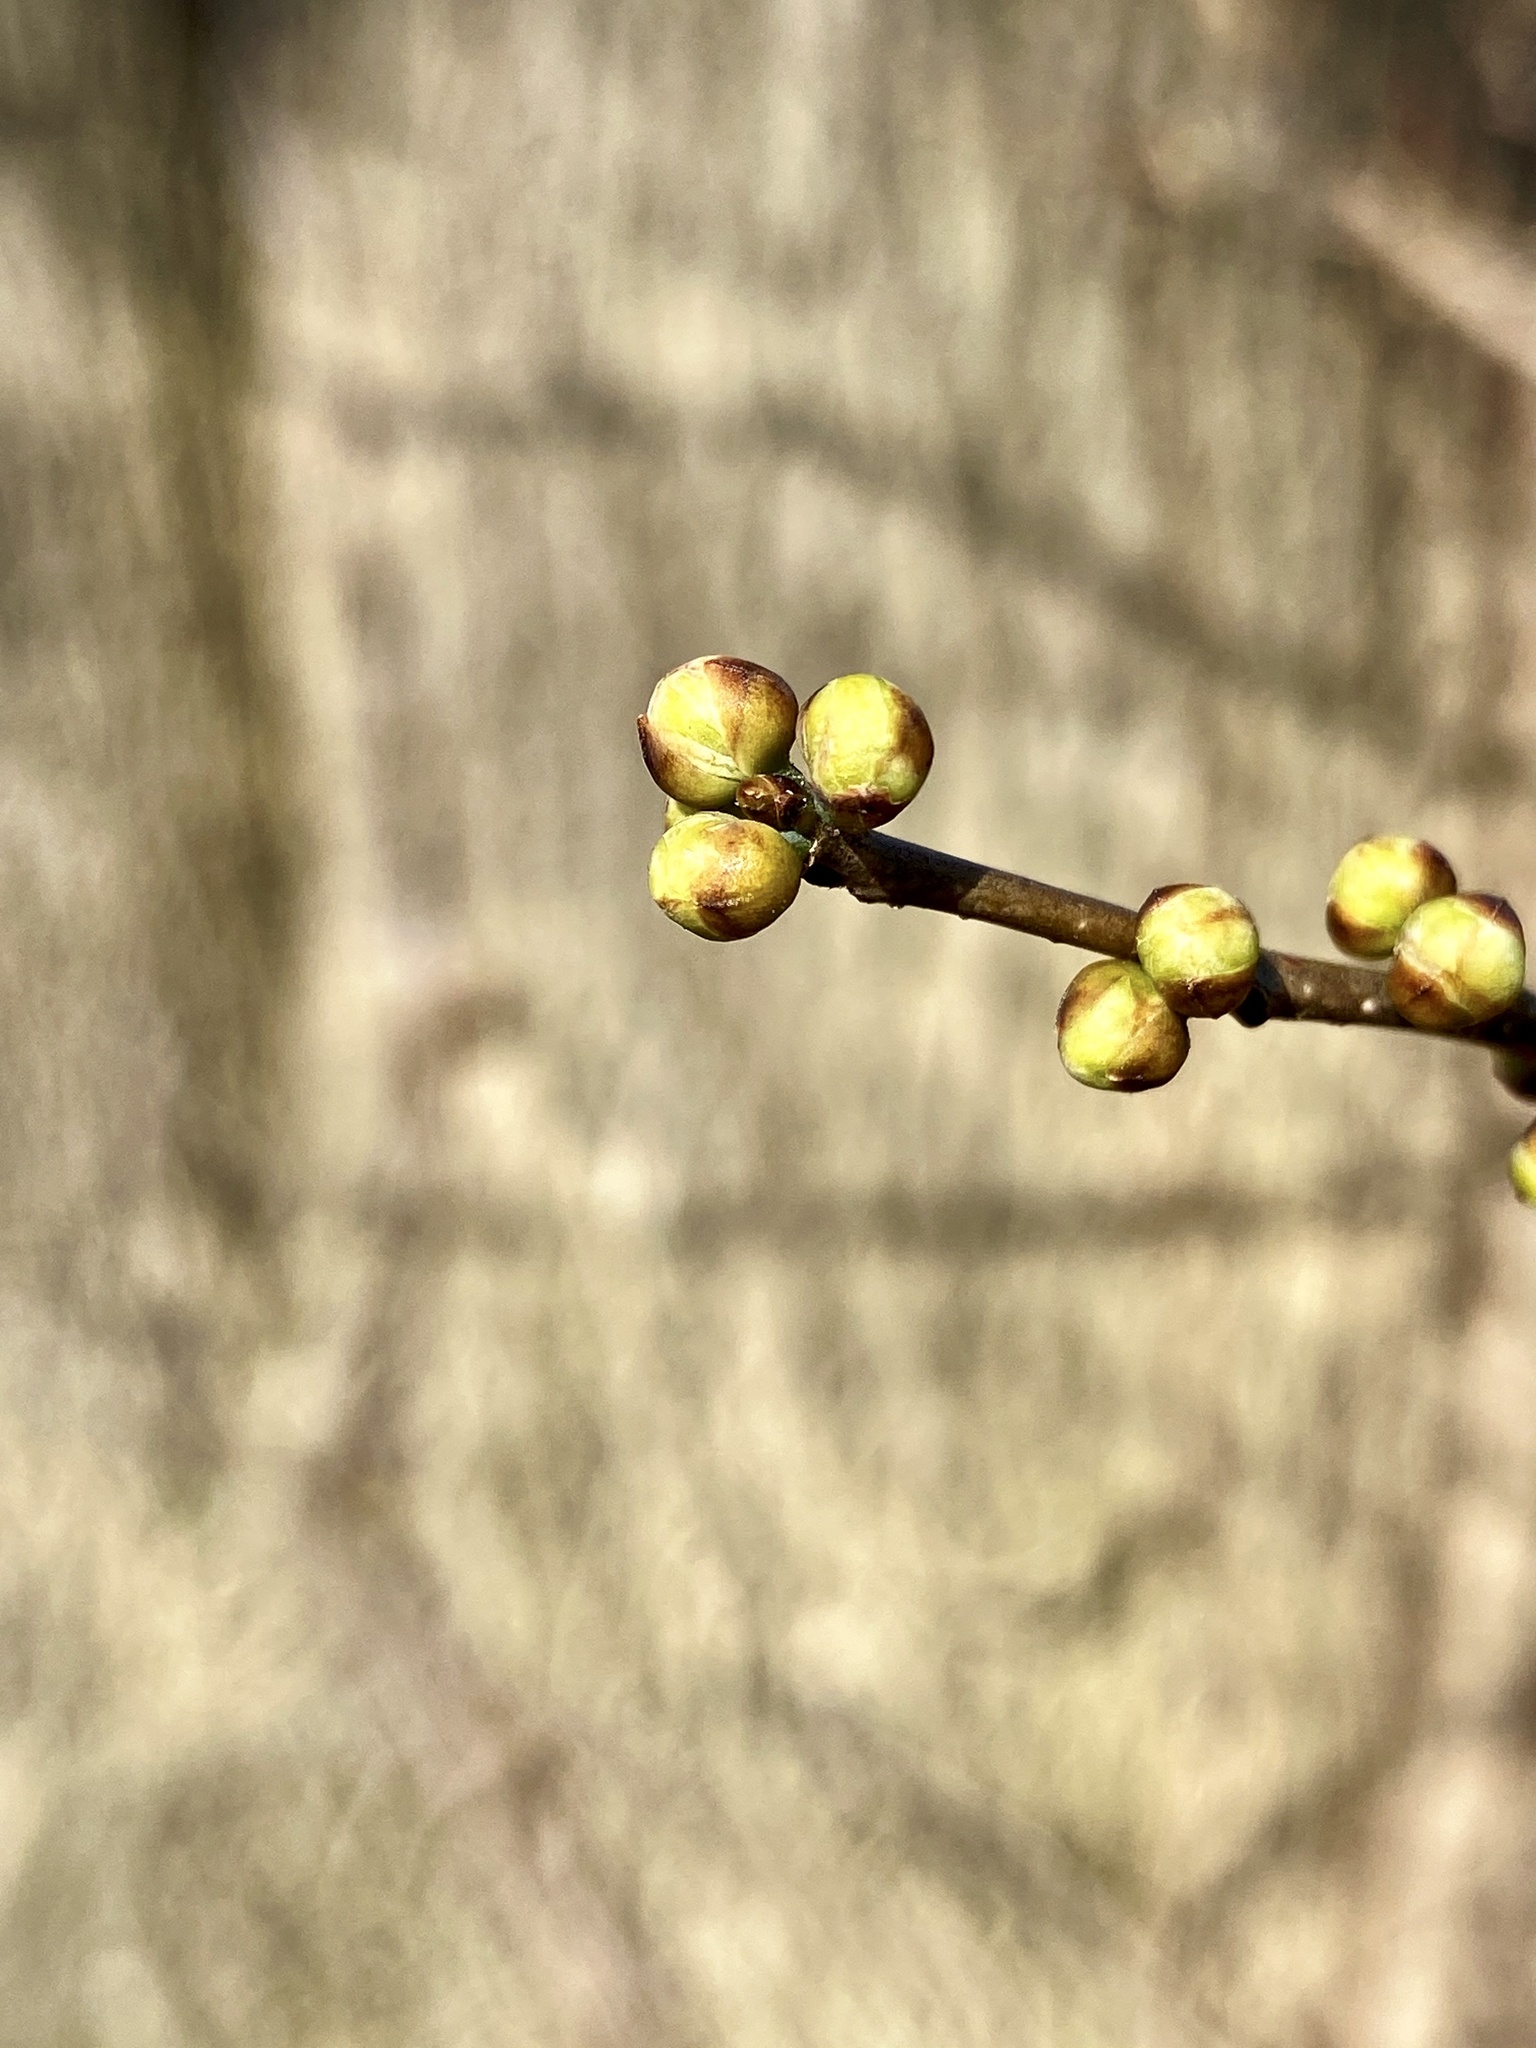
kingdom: Plantae
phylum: Tracheophyta
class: Magnoliopsida
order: Laurales
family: Lauraceae
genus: Lindera
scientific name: Lindera benzoin
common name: Spicebush
